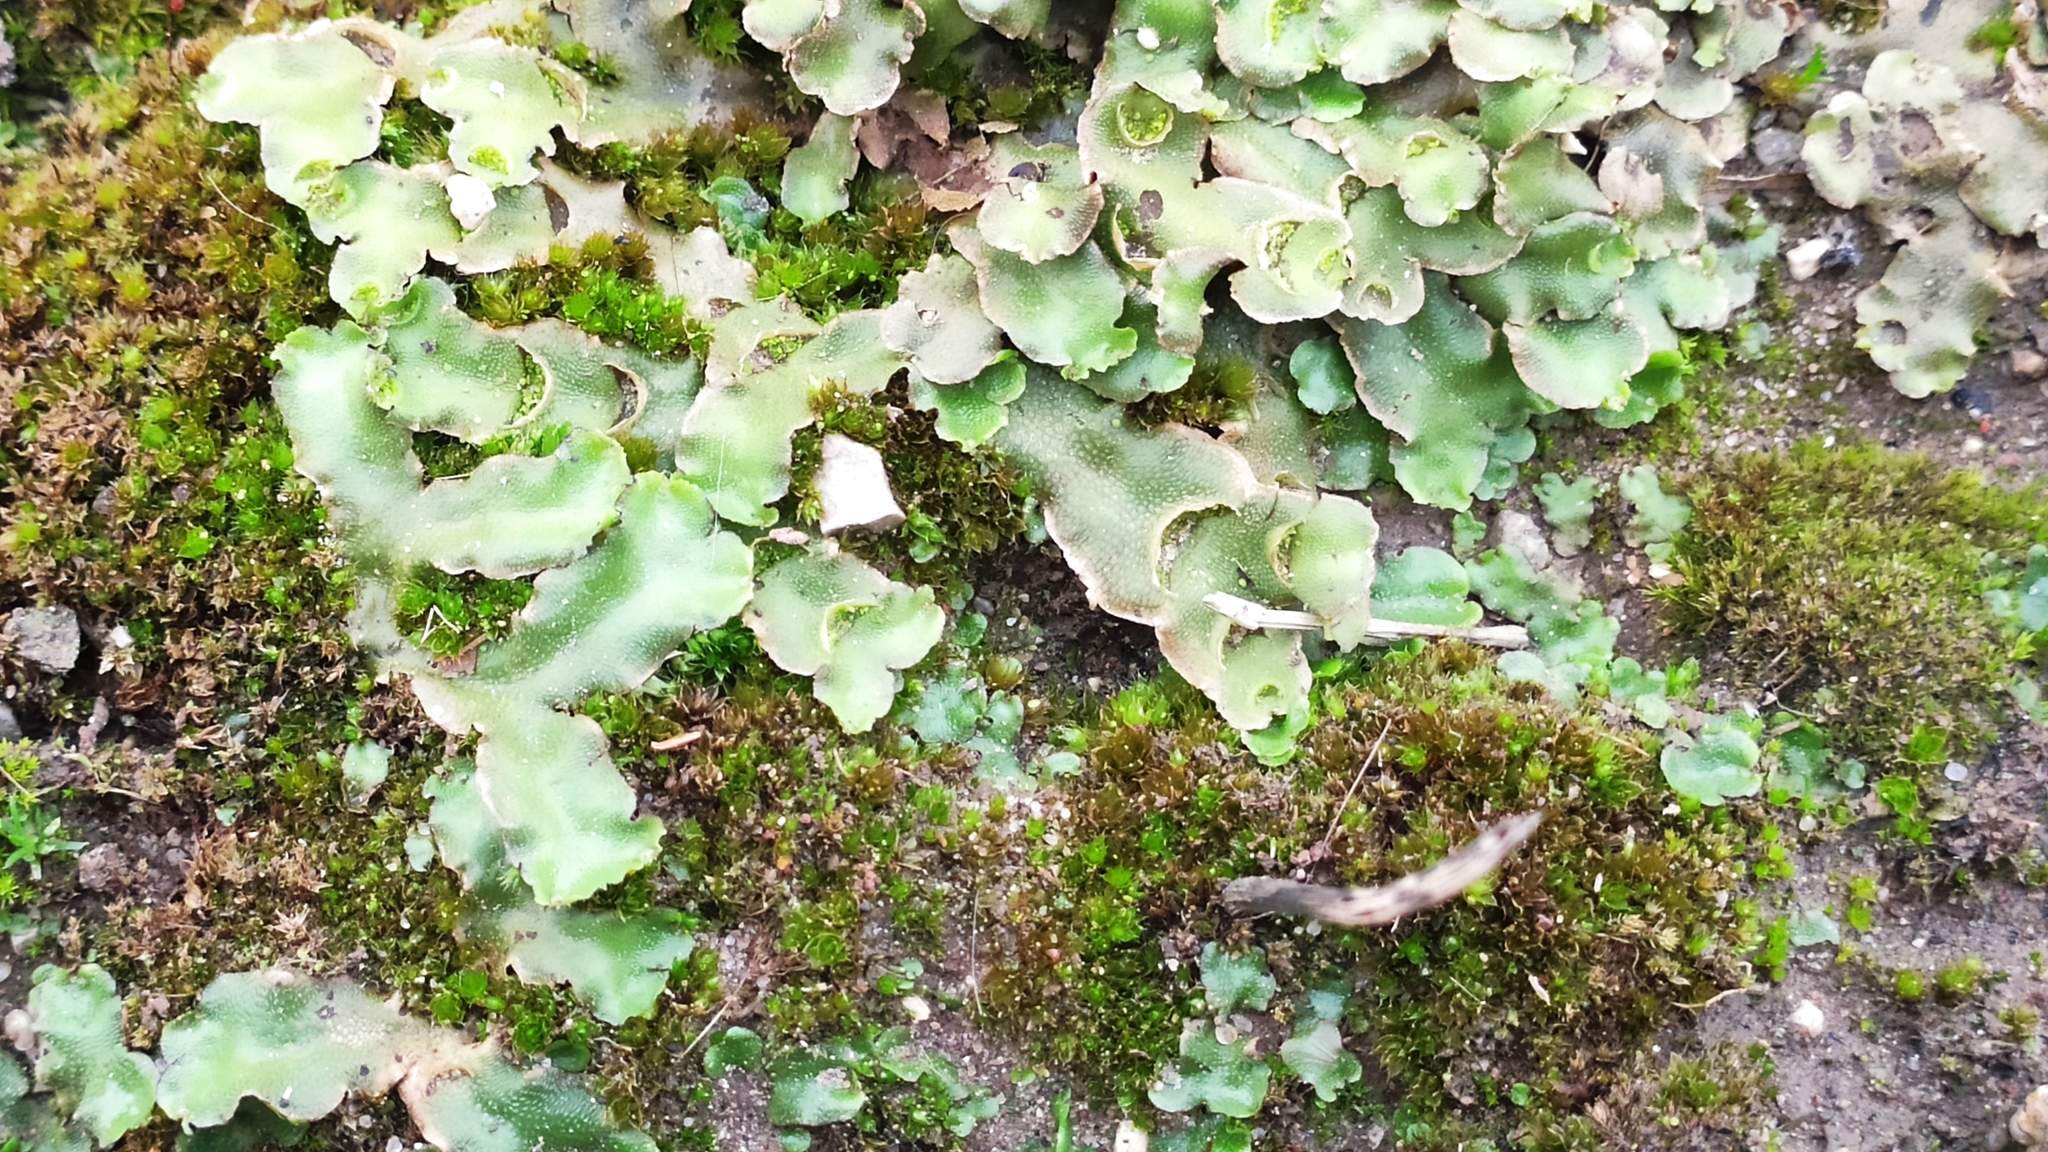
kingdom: Plantae
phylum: Marchantiophyta
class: Marchantiopsida
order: Lunulariales
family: Lunulariaceae
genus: Lunularia
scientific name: Lunularia cruciata
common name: Crescent-cup liverwort
